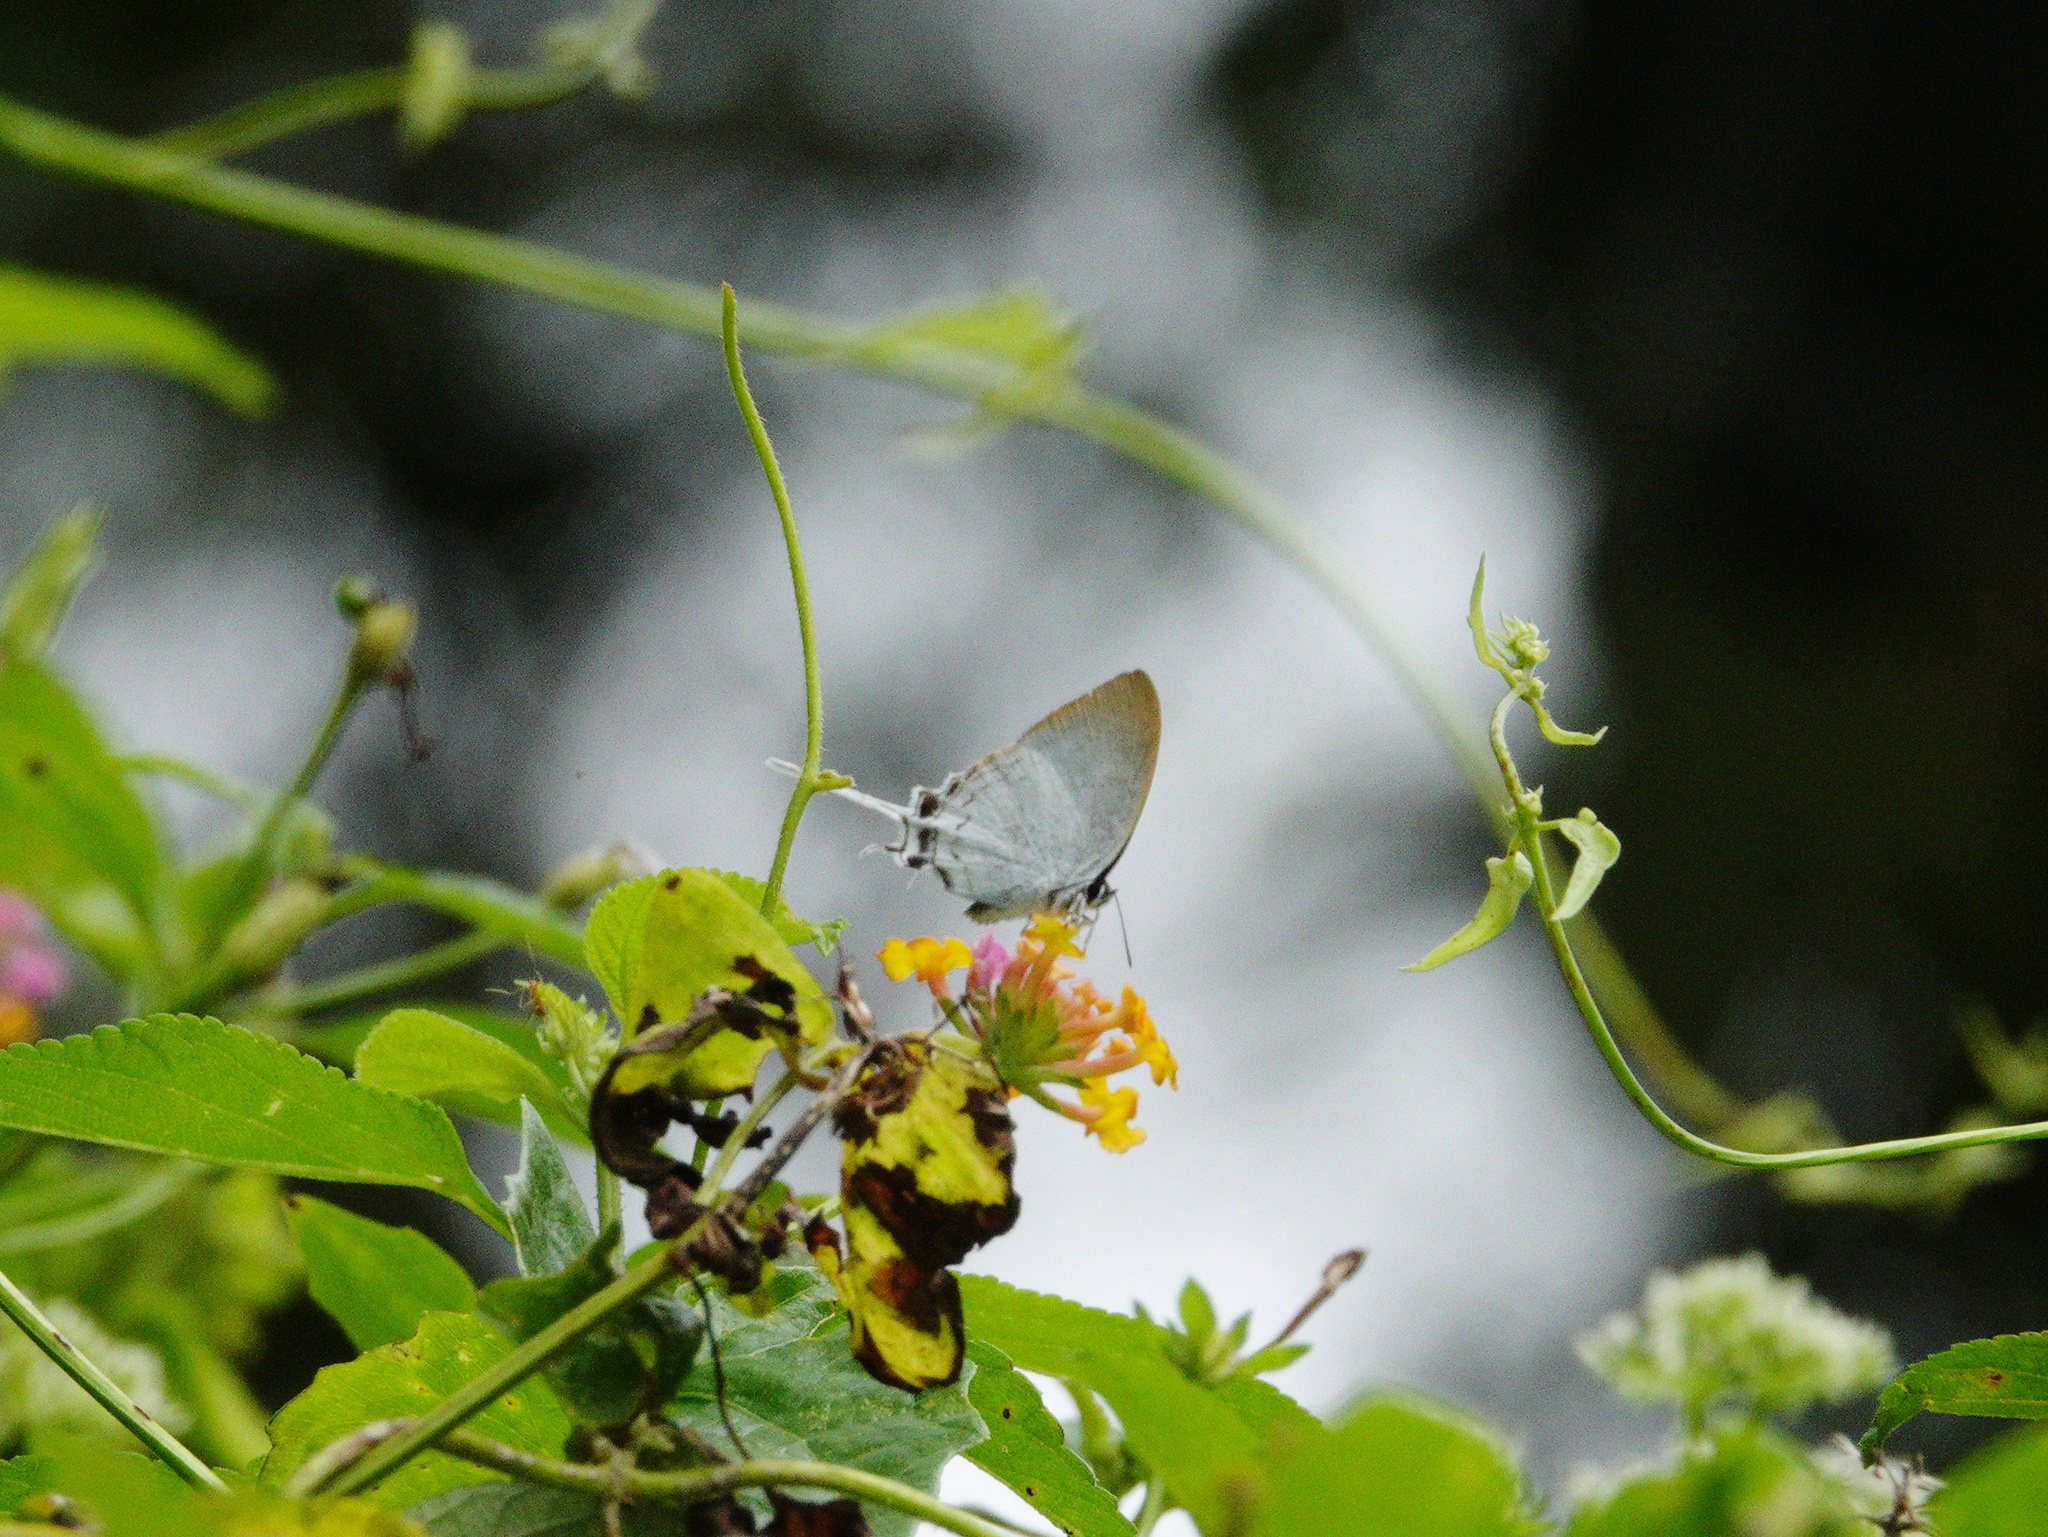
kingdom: Animalia
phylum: Arthropoda
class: Insecta
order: Lepidoptera
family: Lycaenidae
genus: Cheritra
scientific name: Cheritra freja
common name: Common imperial
